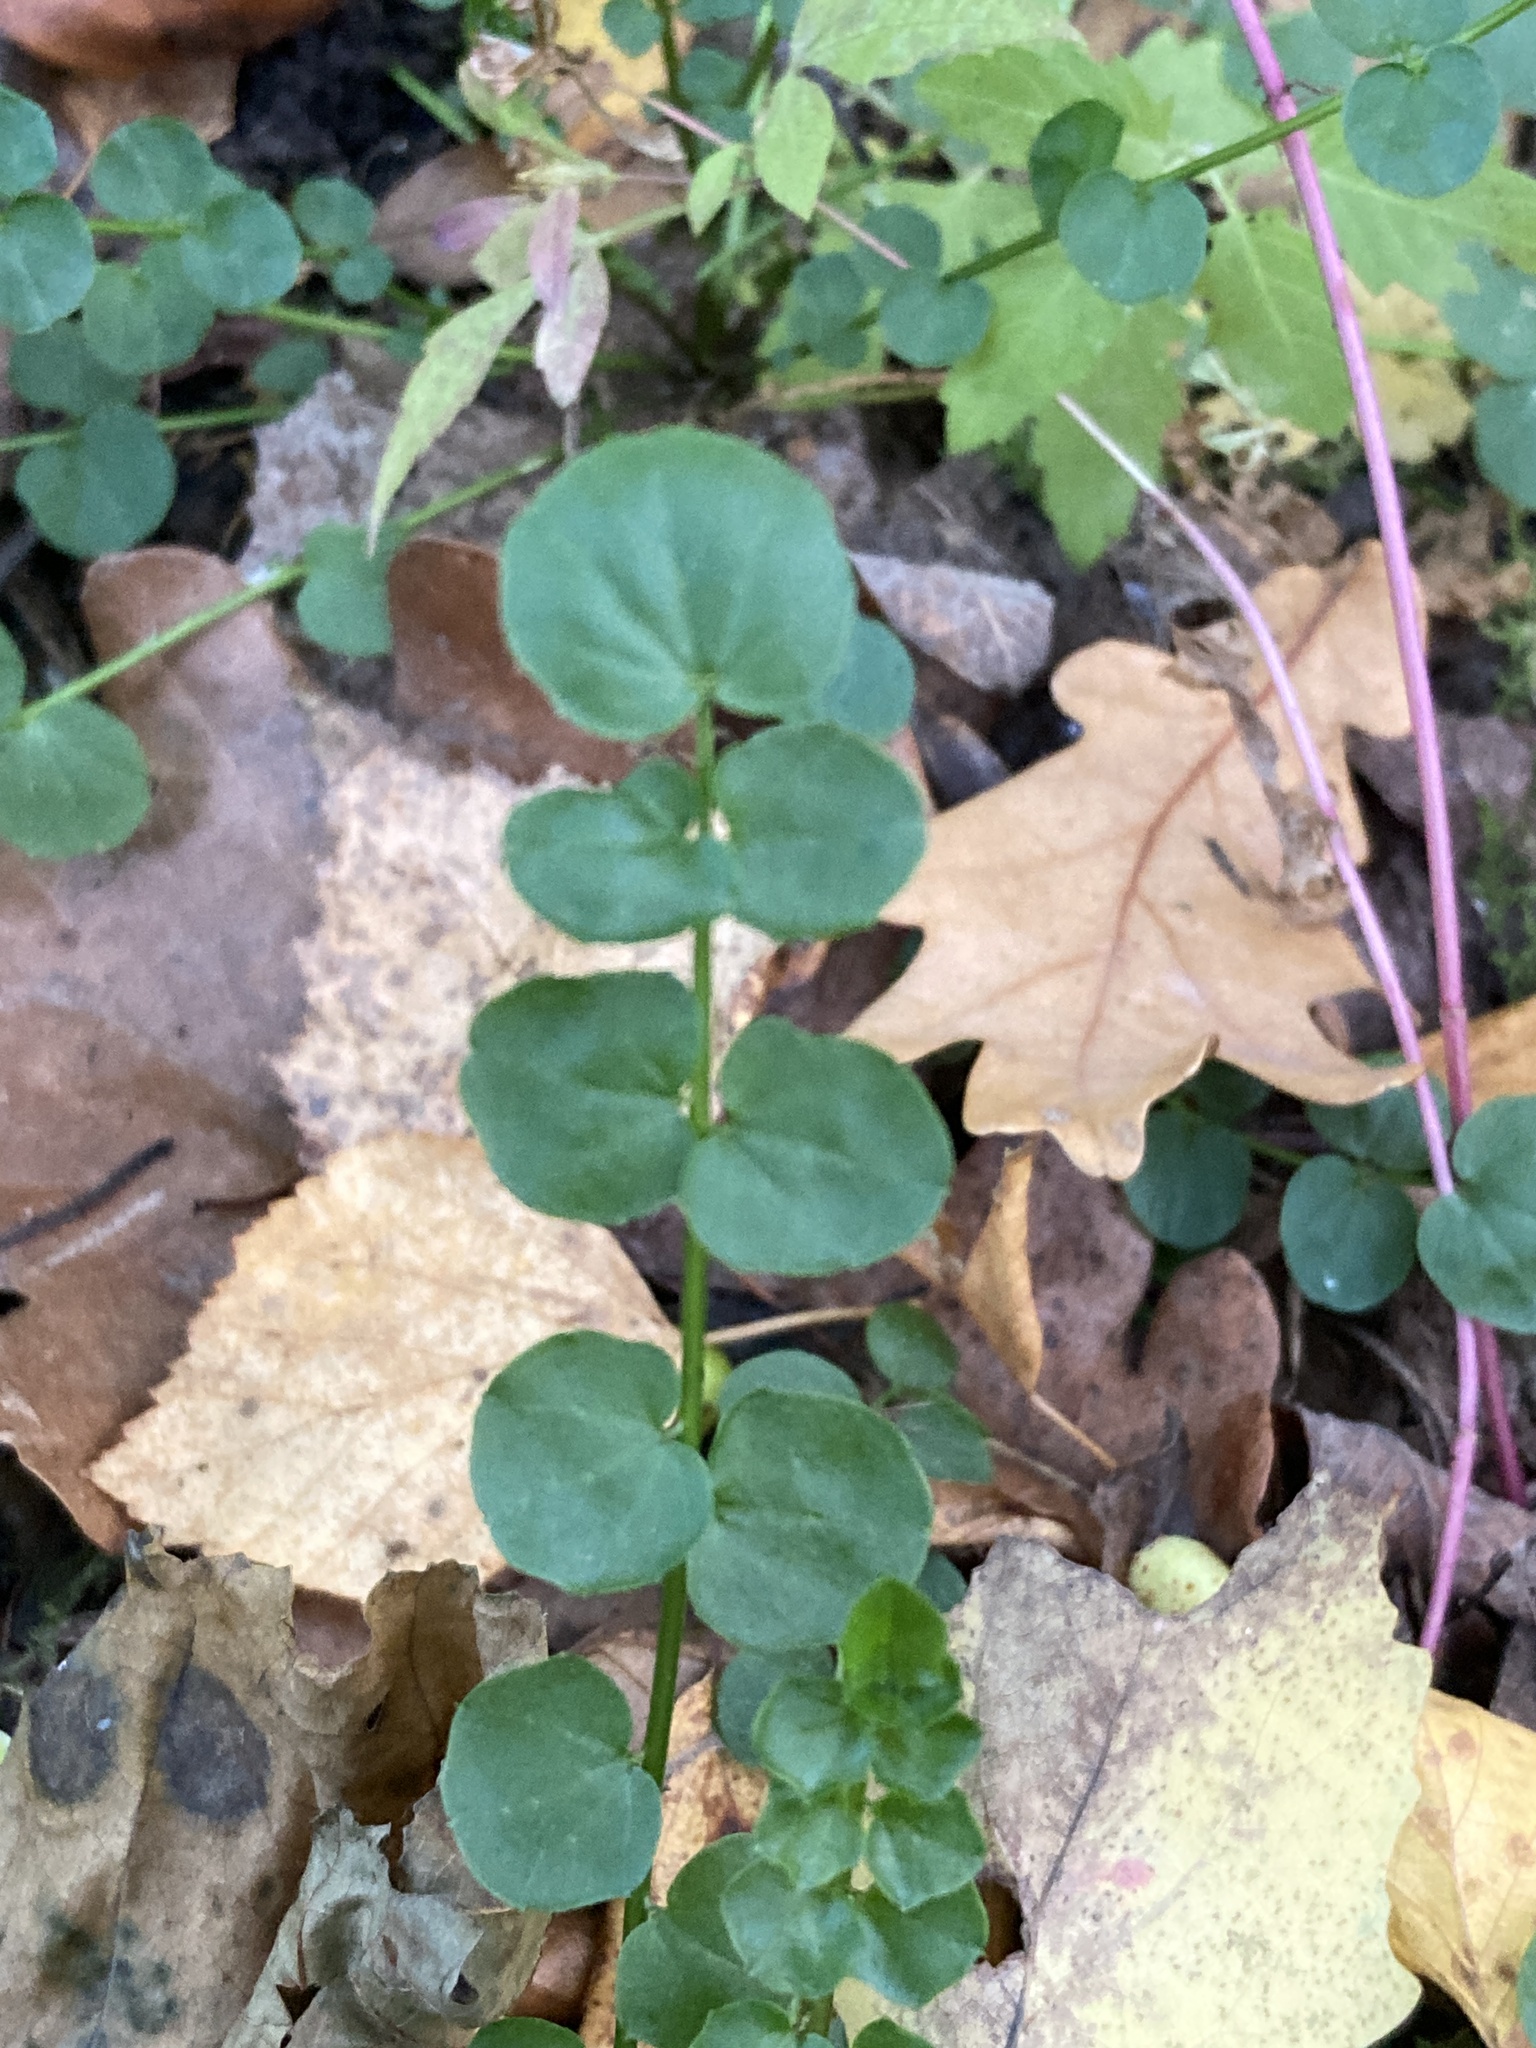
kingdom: Plantae
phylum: Tracheophyta
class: Magnoliopsida
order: Brassicales
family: Brassicaceae
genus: Cardamine
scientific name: Cardamine dentata
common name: Toothed bittercress
